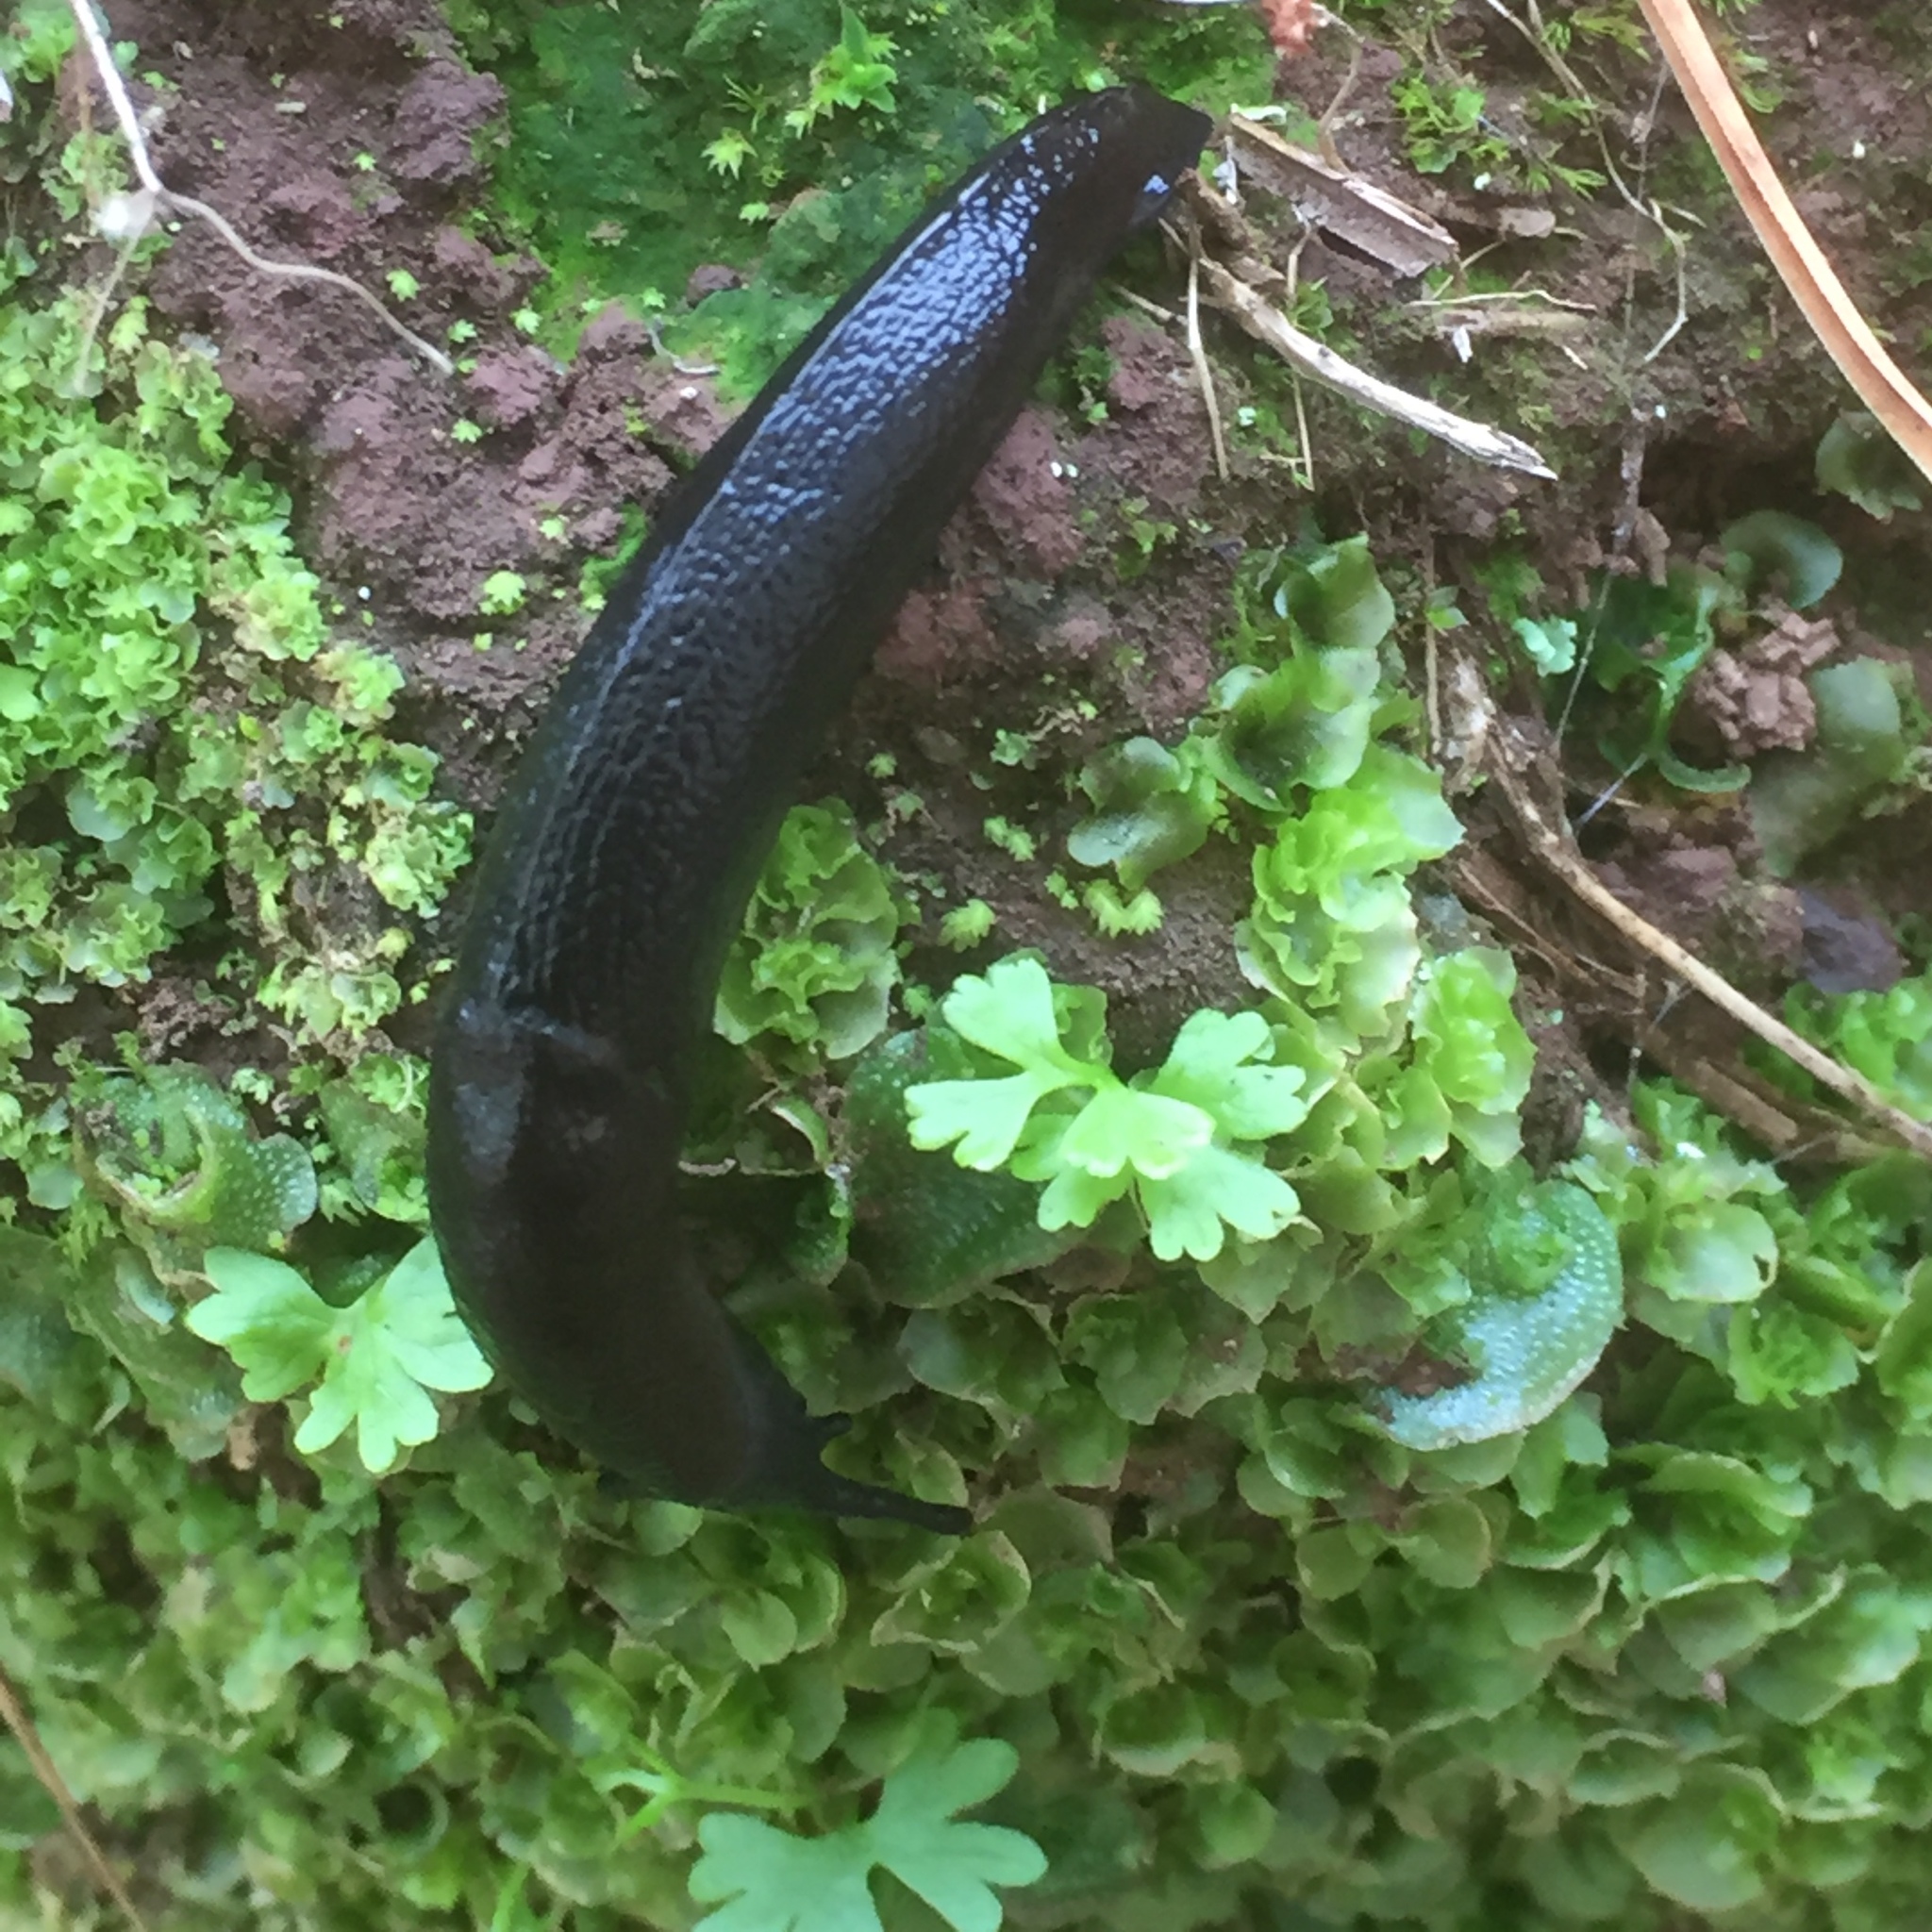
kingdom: Animalia
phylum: Mollusca
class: Gastropoda
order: Stylommatophora
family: Milacidae
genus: Milax
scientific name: Milax gagates
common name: Greenhouse slug
